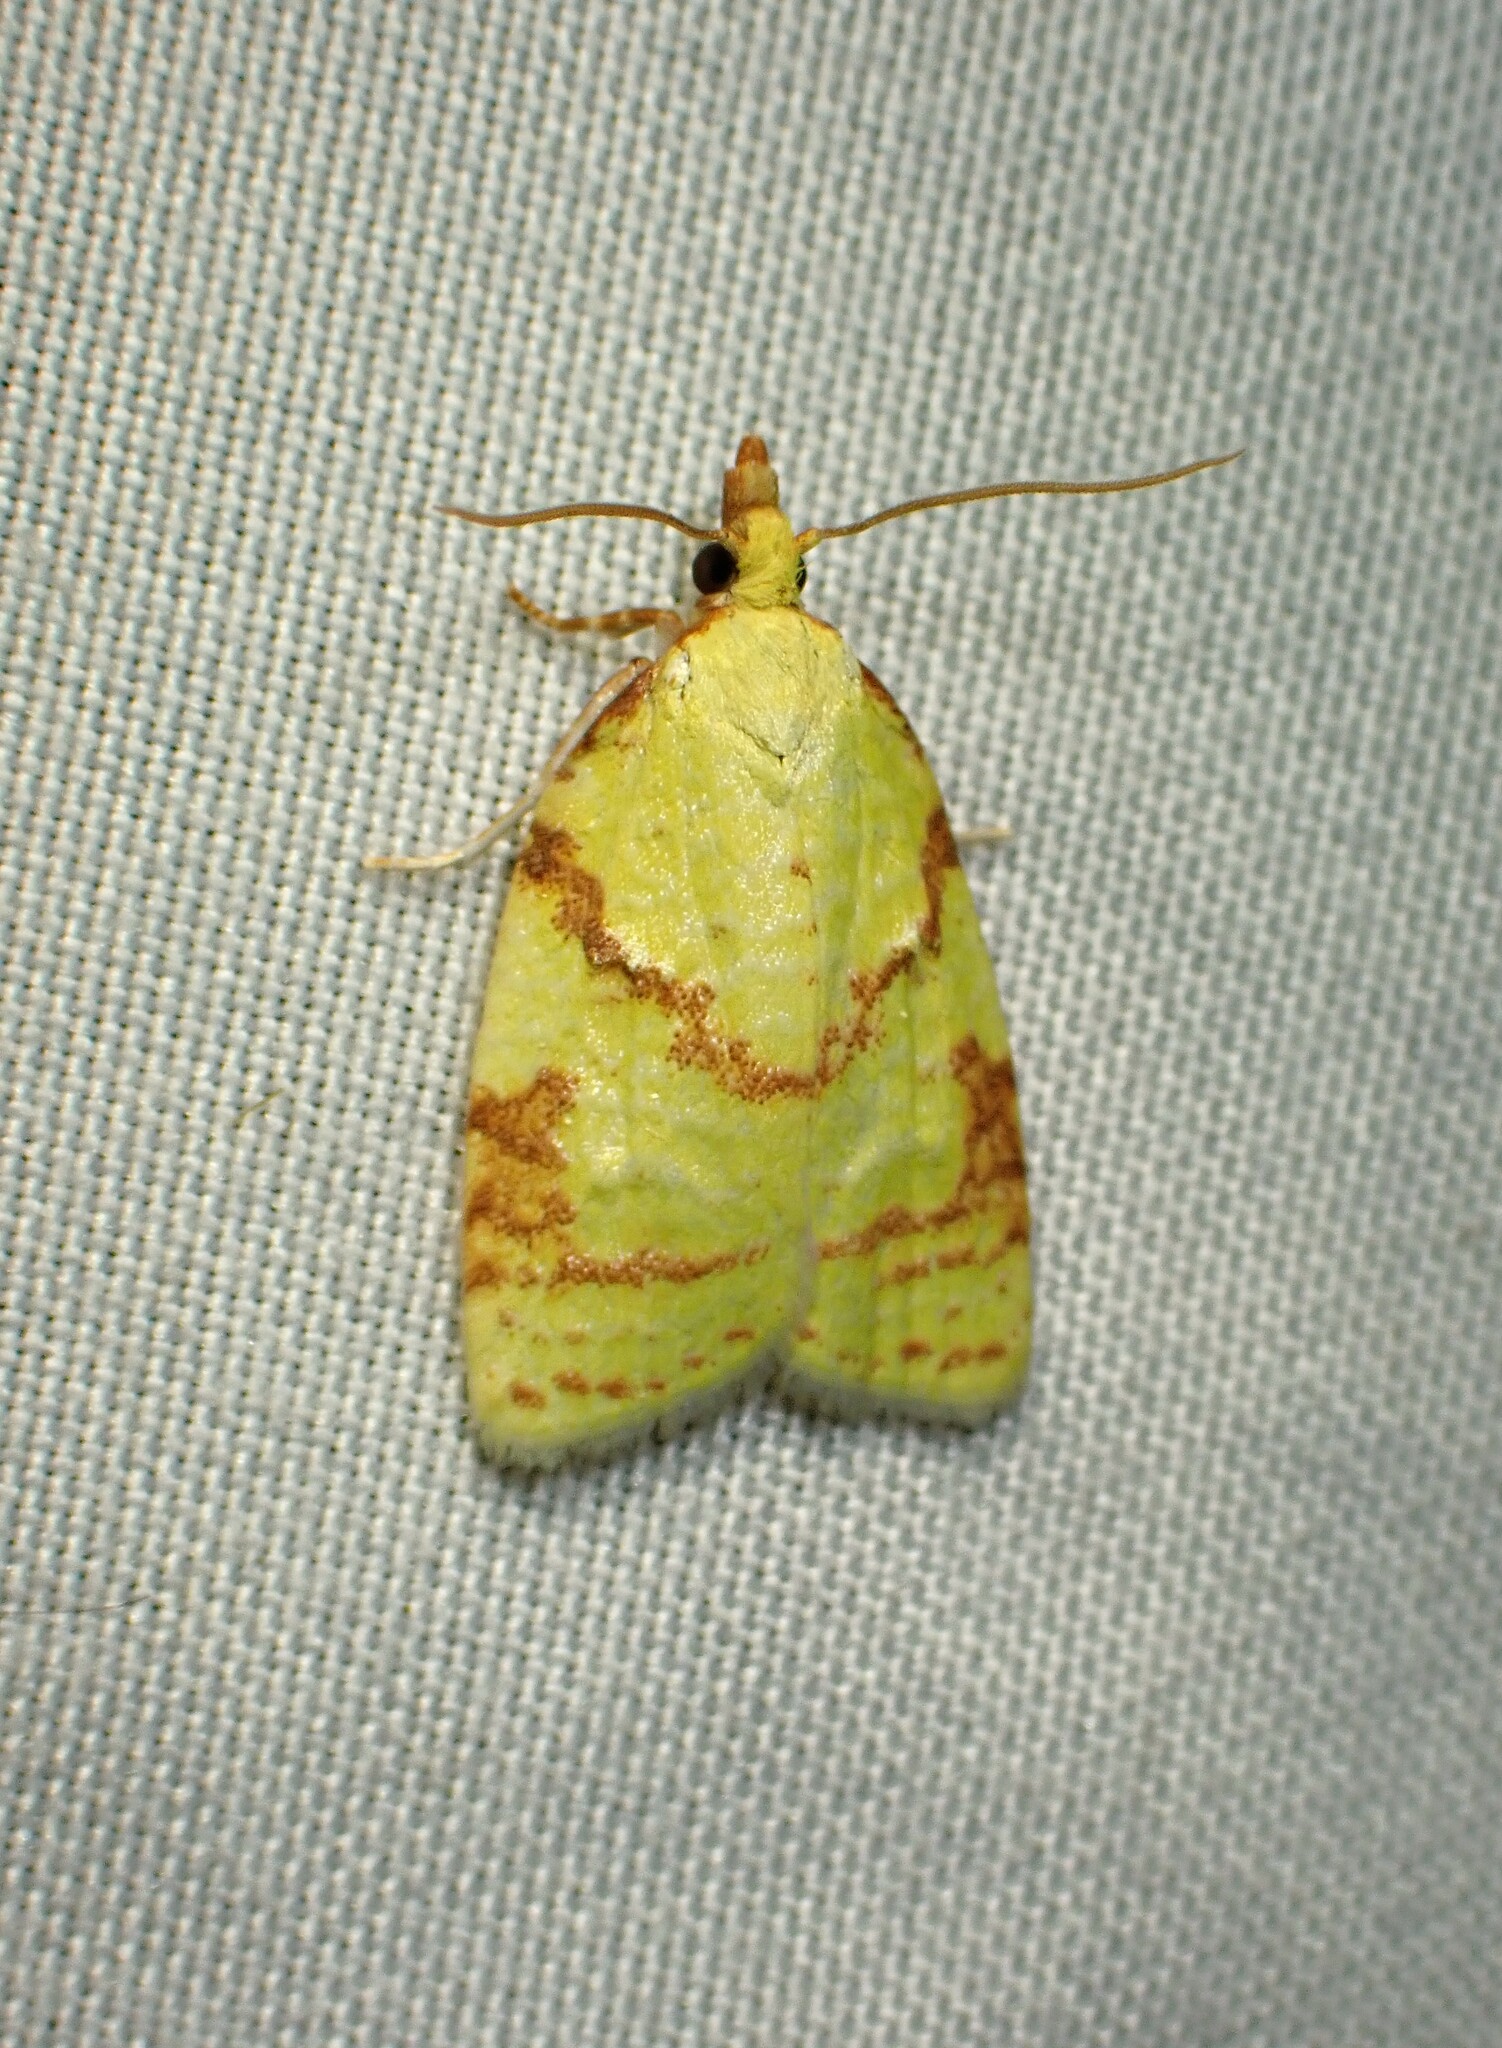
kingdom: Animalia
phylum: Arthropoda
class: Insecta
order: Lepidoptera
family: Tortricidae
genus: Cenopis
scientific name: Cenopis pettitana
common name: Maple-basswood leafroller moth
